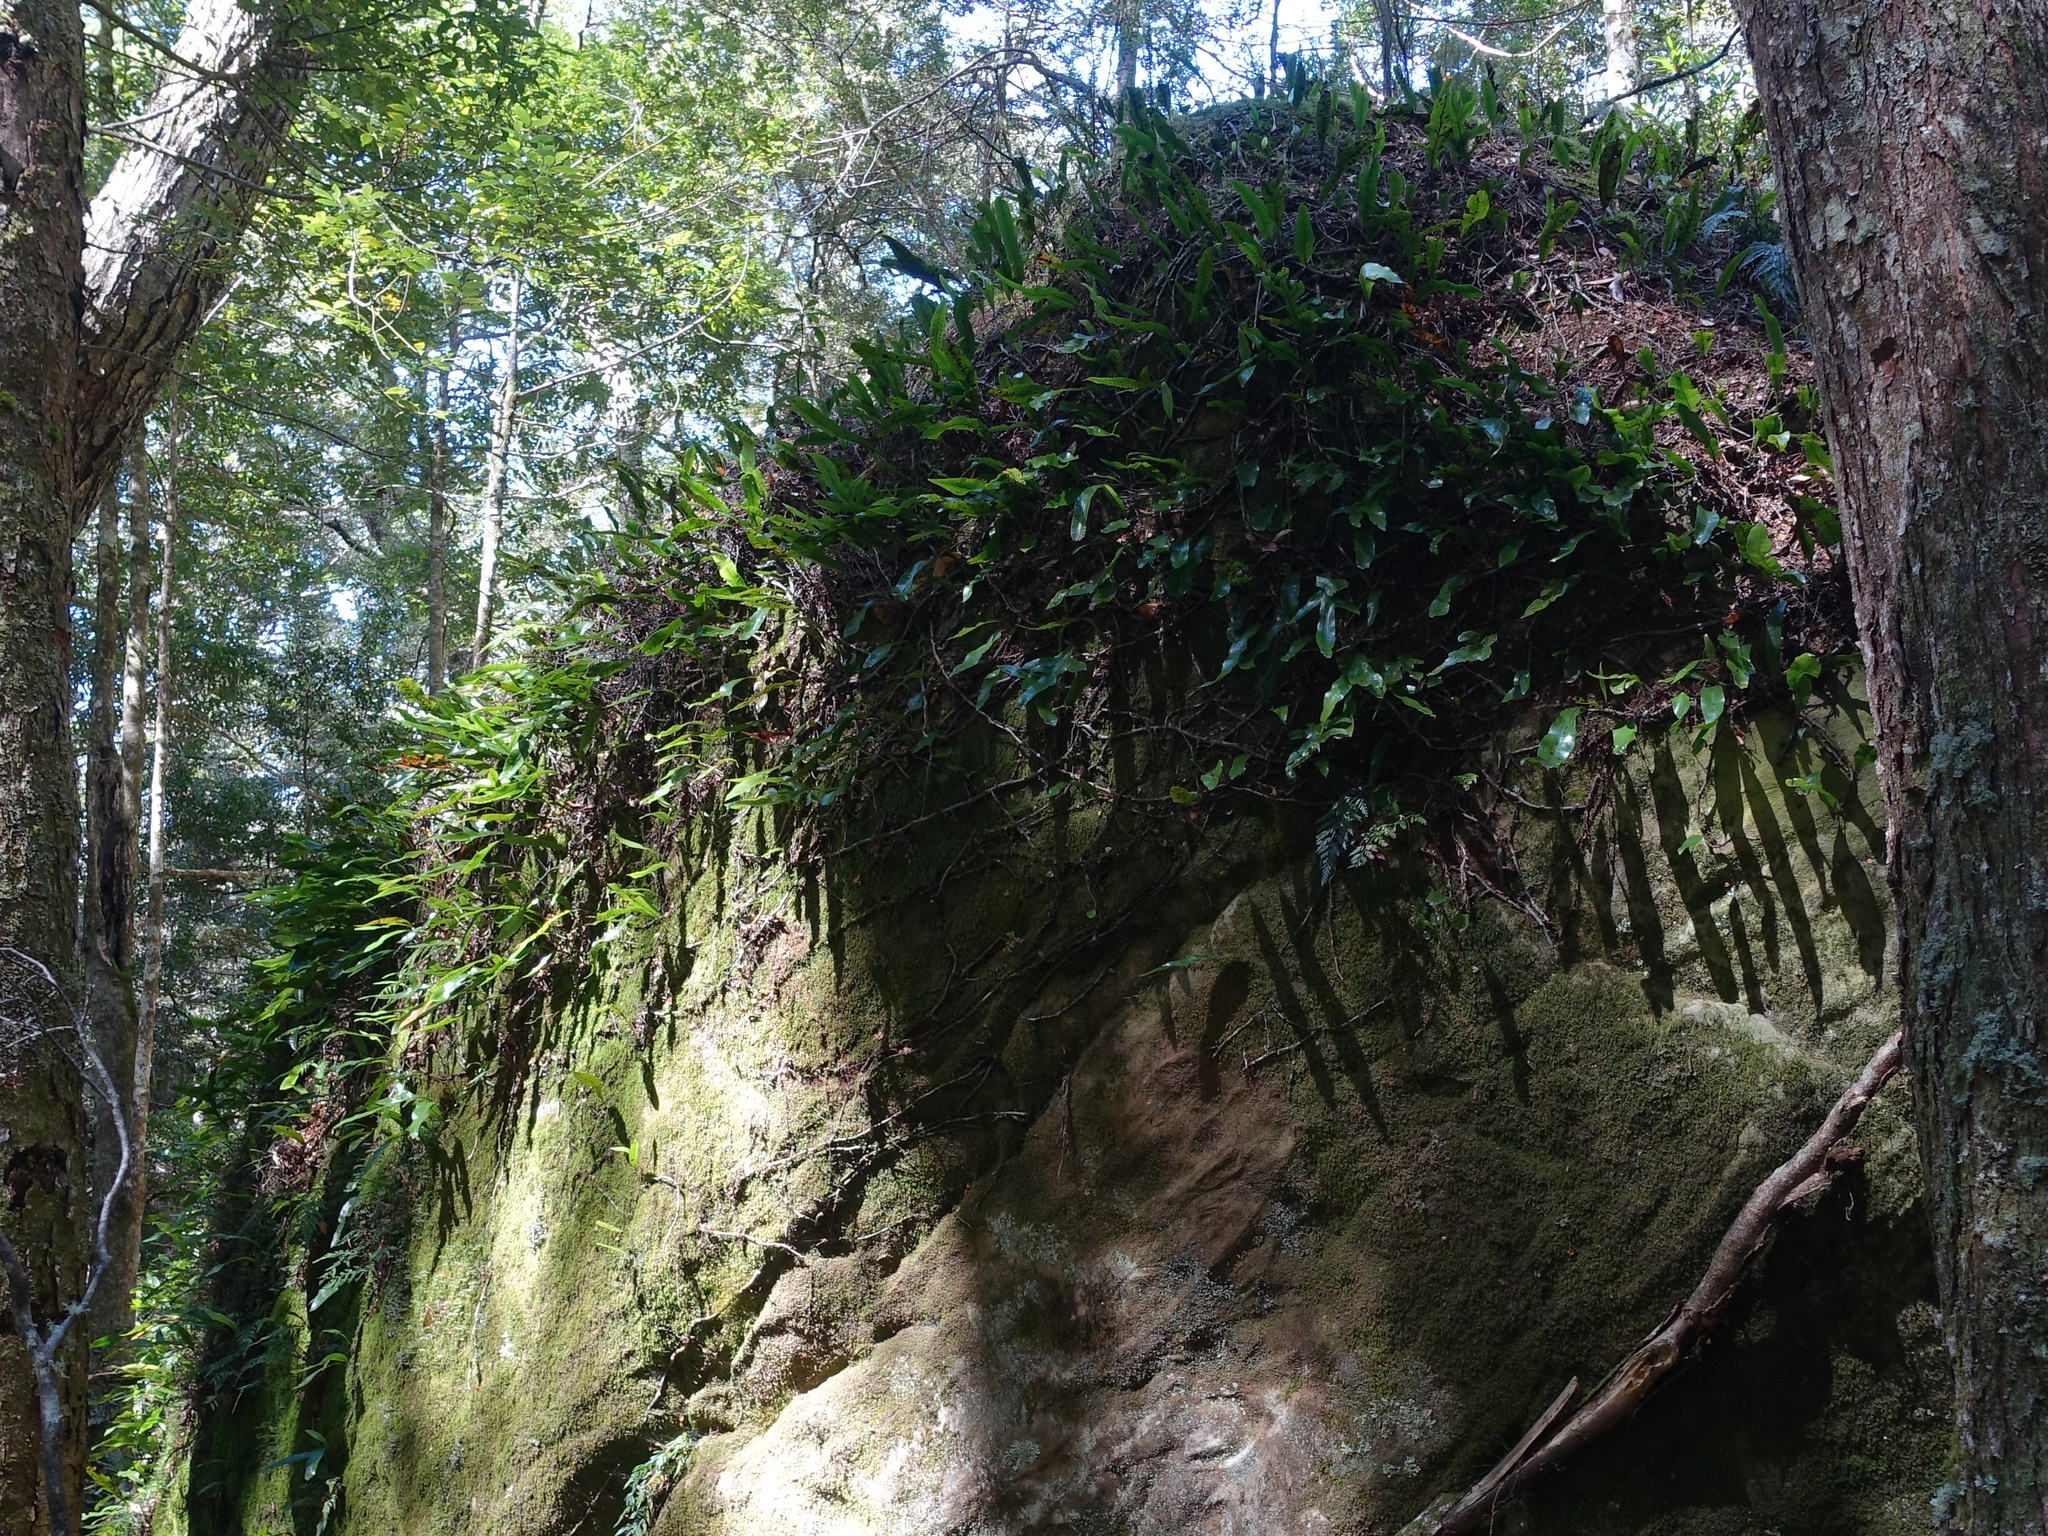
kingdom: Plantae
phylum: Tracheophyta
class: Polypodiopsida
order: Polypodiales
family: Polypodiaceae
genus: Lecanopteris
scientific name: Lecanopteris pustulata
